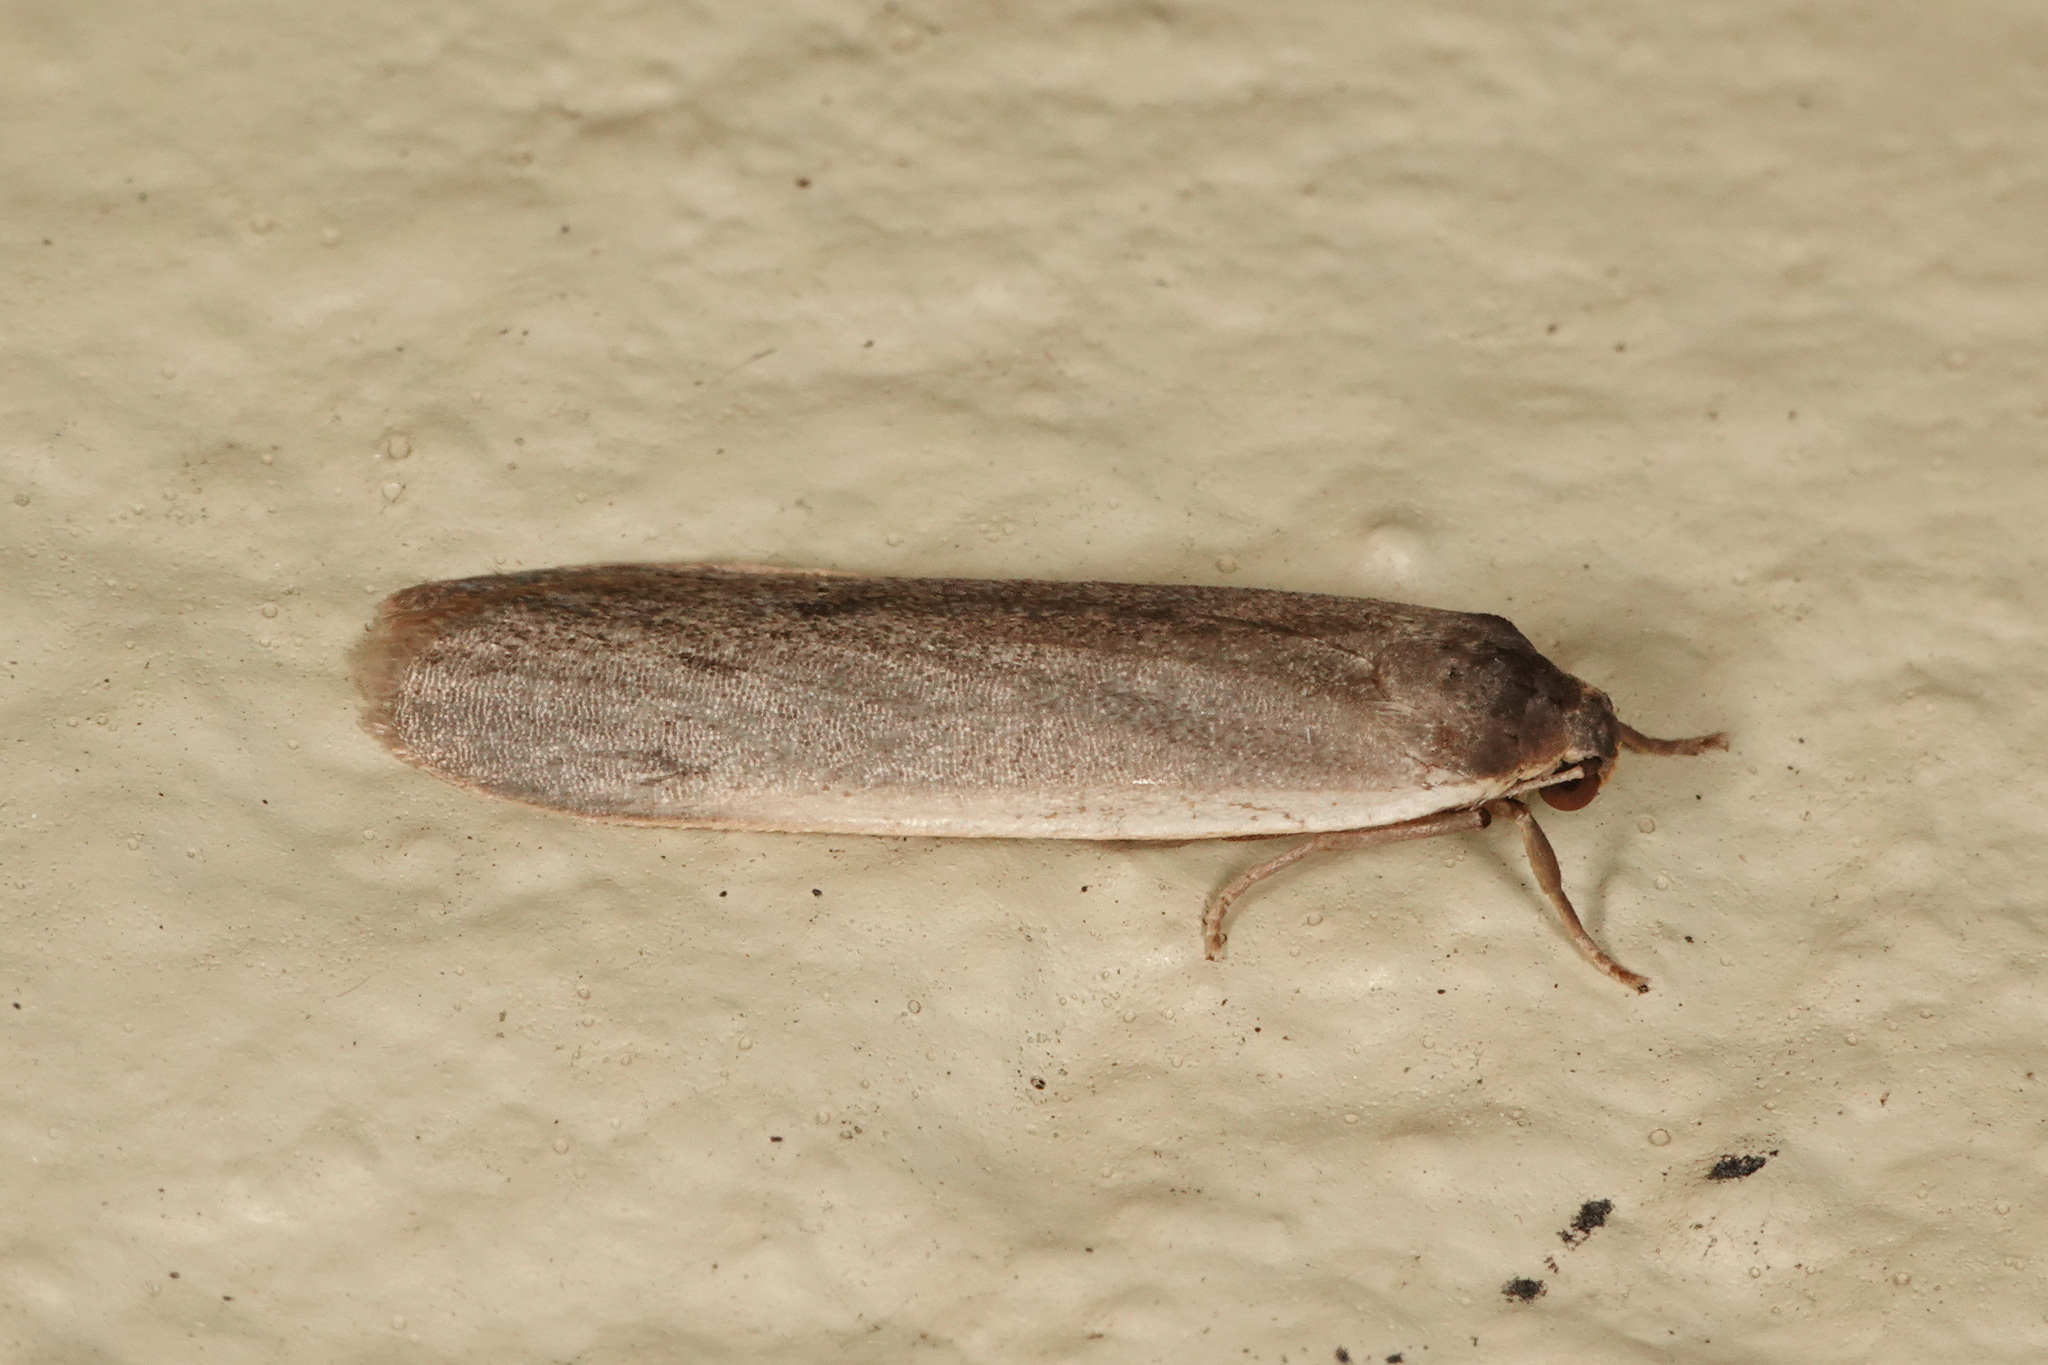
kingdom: Animalia
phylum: Arthropoda
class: Insecta
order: Lepidoptera
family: Erebidae
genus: Scoliacma
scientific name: Scoliacma nana
